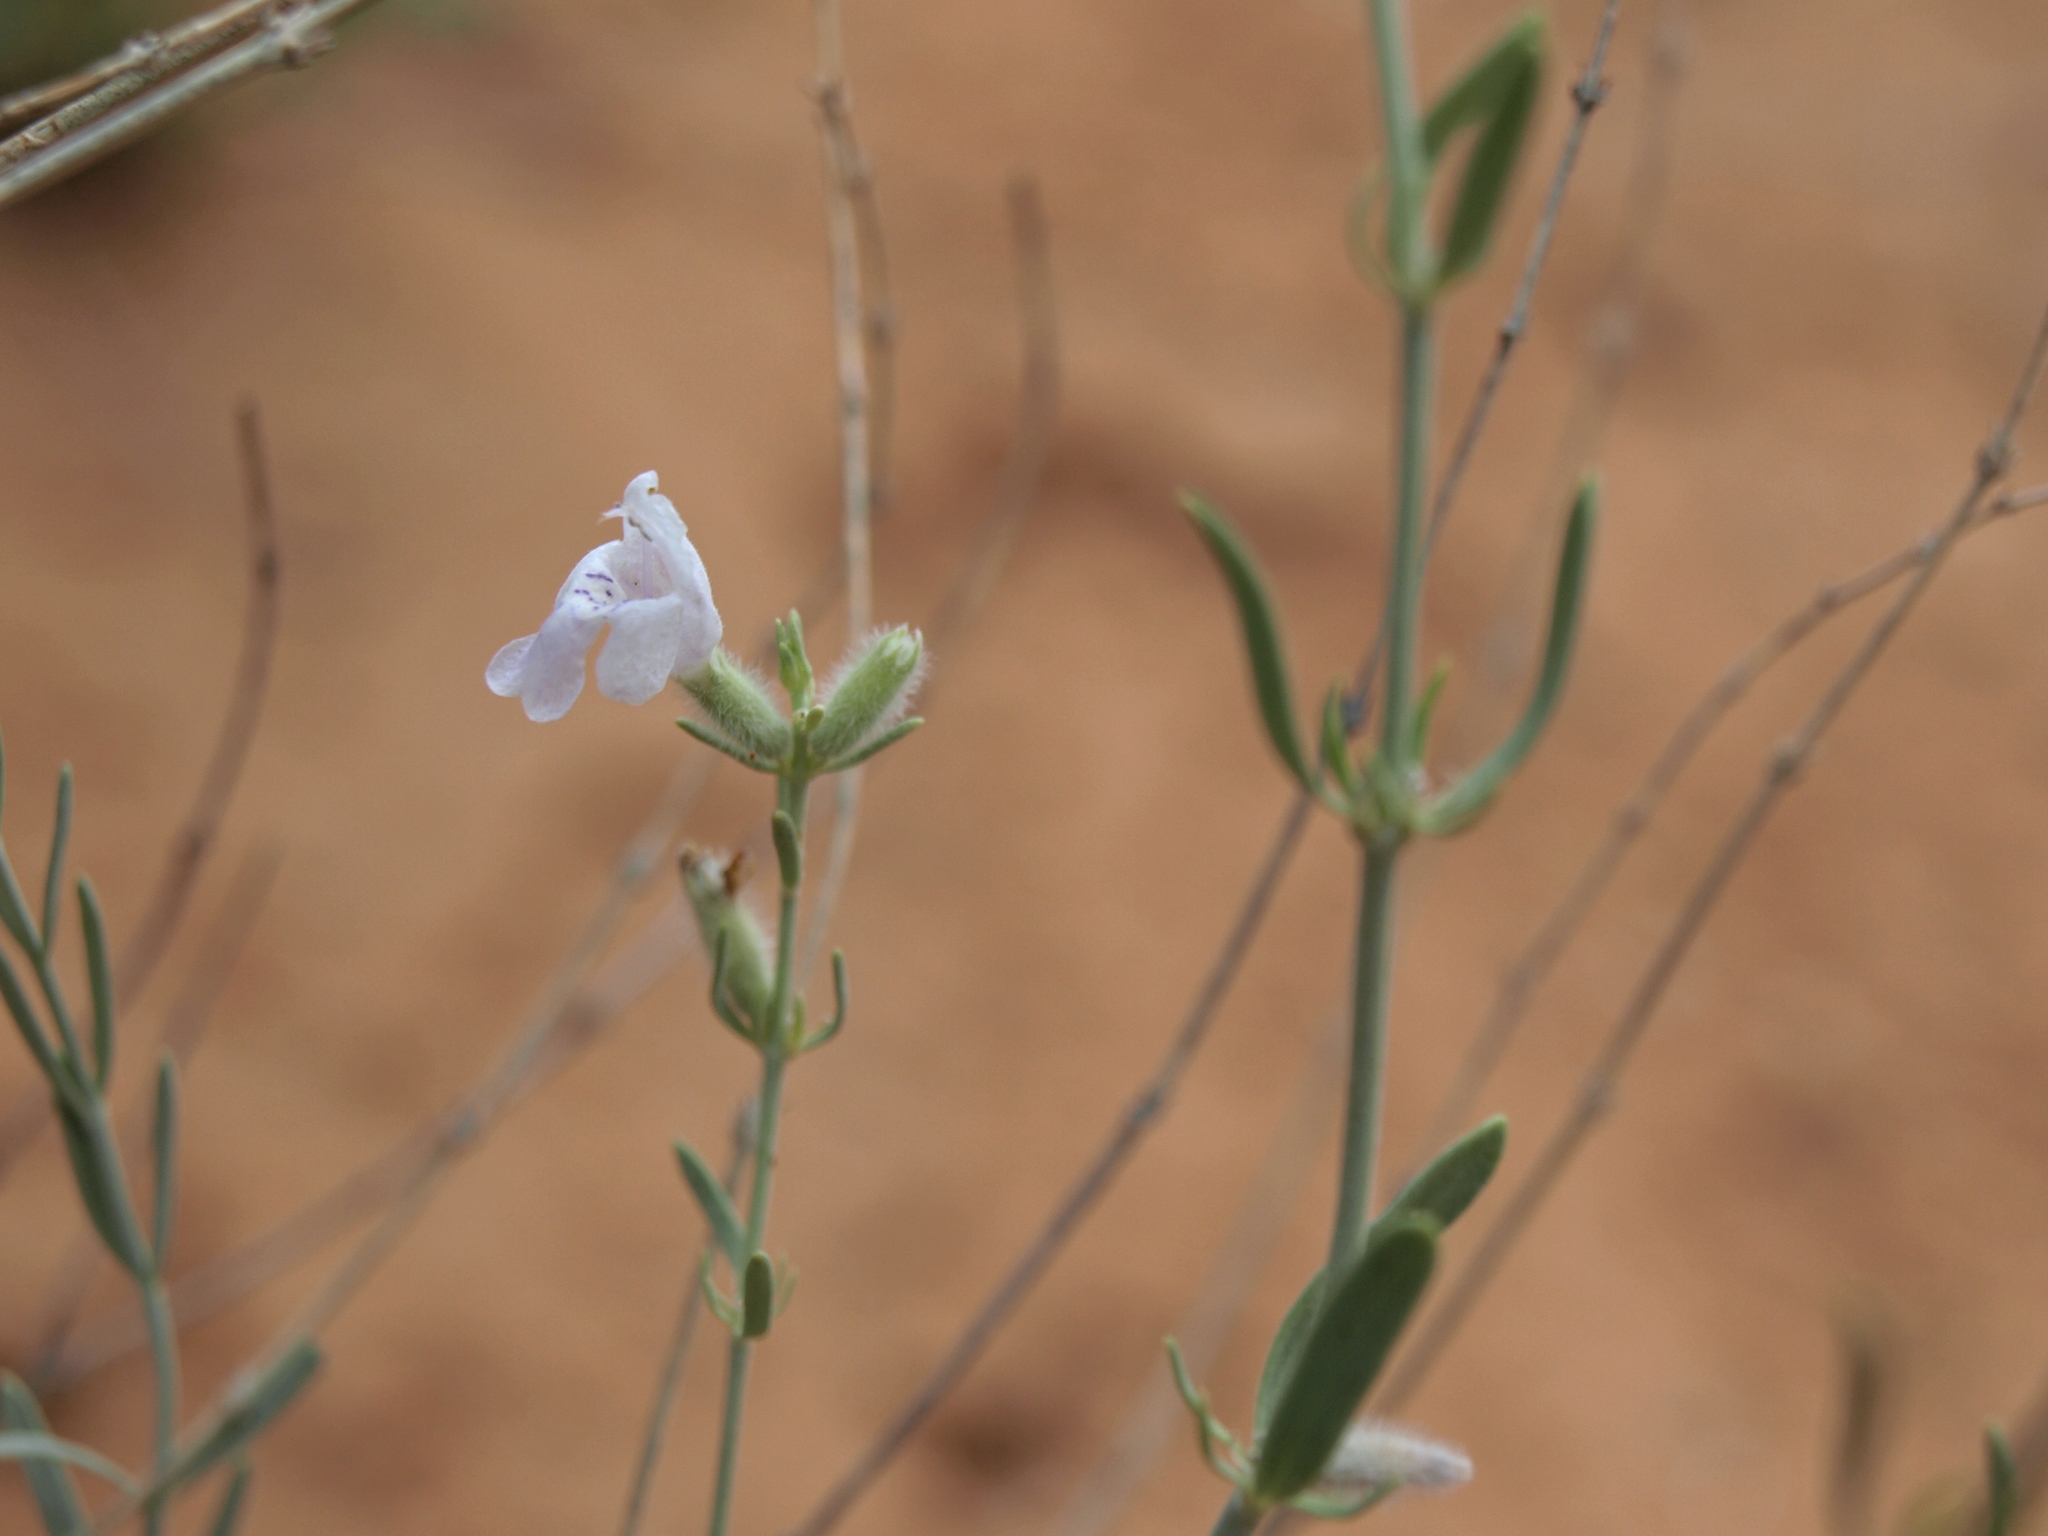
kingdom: Plantae
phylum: Tracheophyta
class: Magnoliopsida
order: Lamiales
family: Lamiaceae
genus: Poliomintha
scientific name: Poliomintha incana
